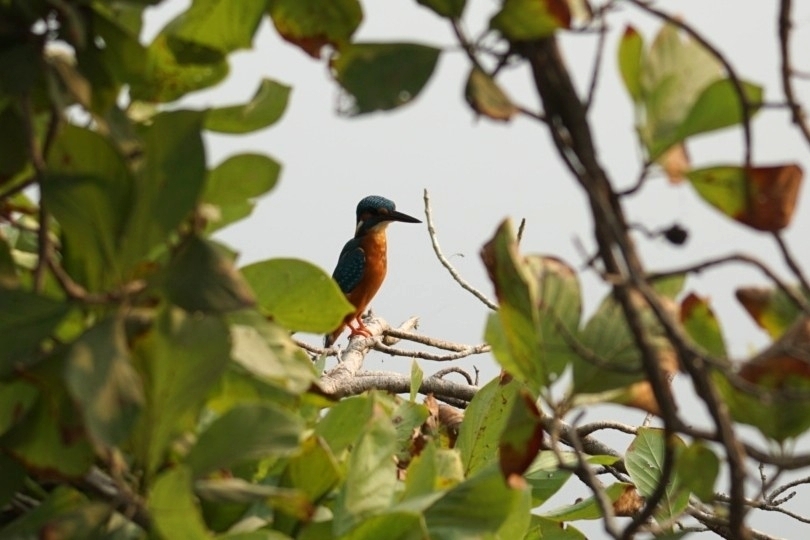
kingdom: Animalia
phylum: Chordata
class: Aves
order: Coraciiformes
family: Alcedinidae
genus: Alcedo
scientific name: Alcedo atthis
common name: Common kingfisher
